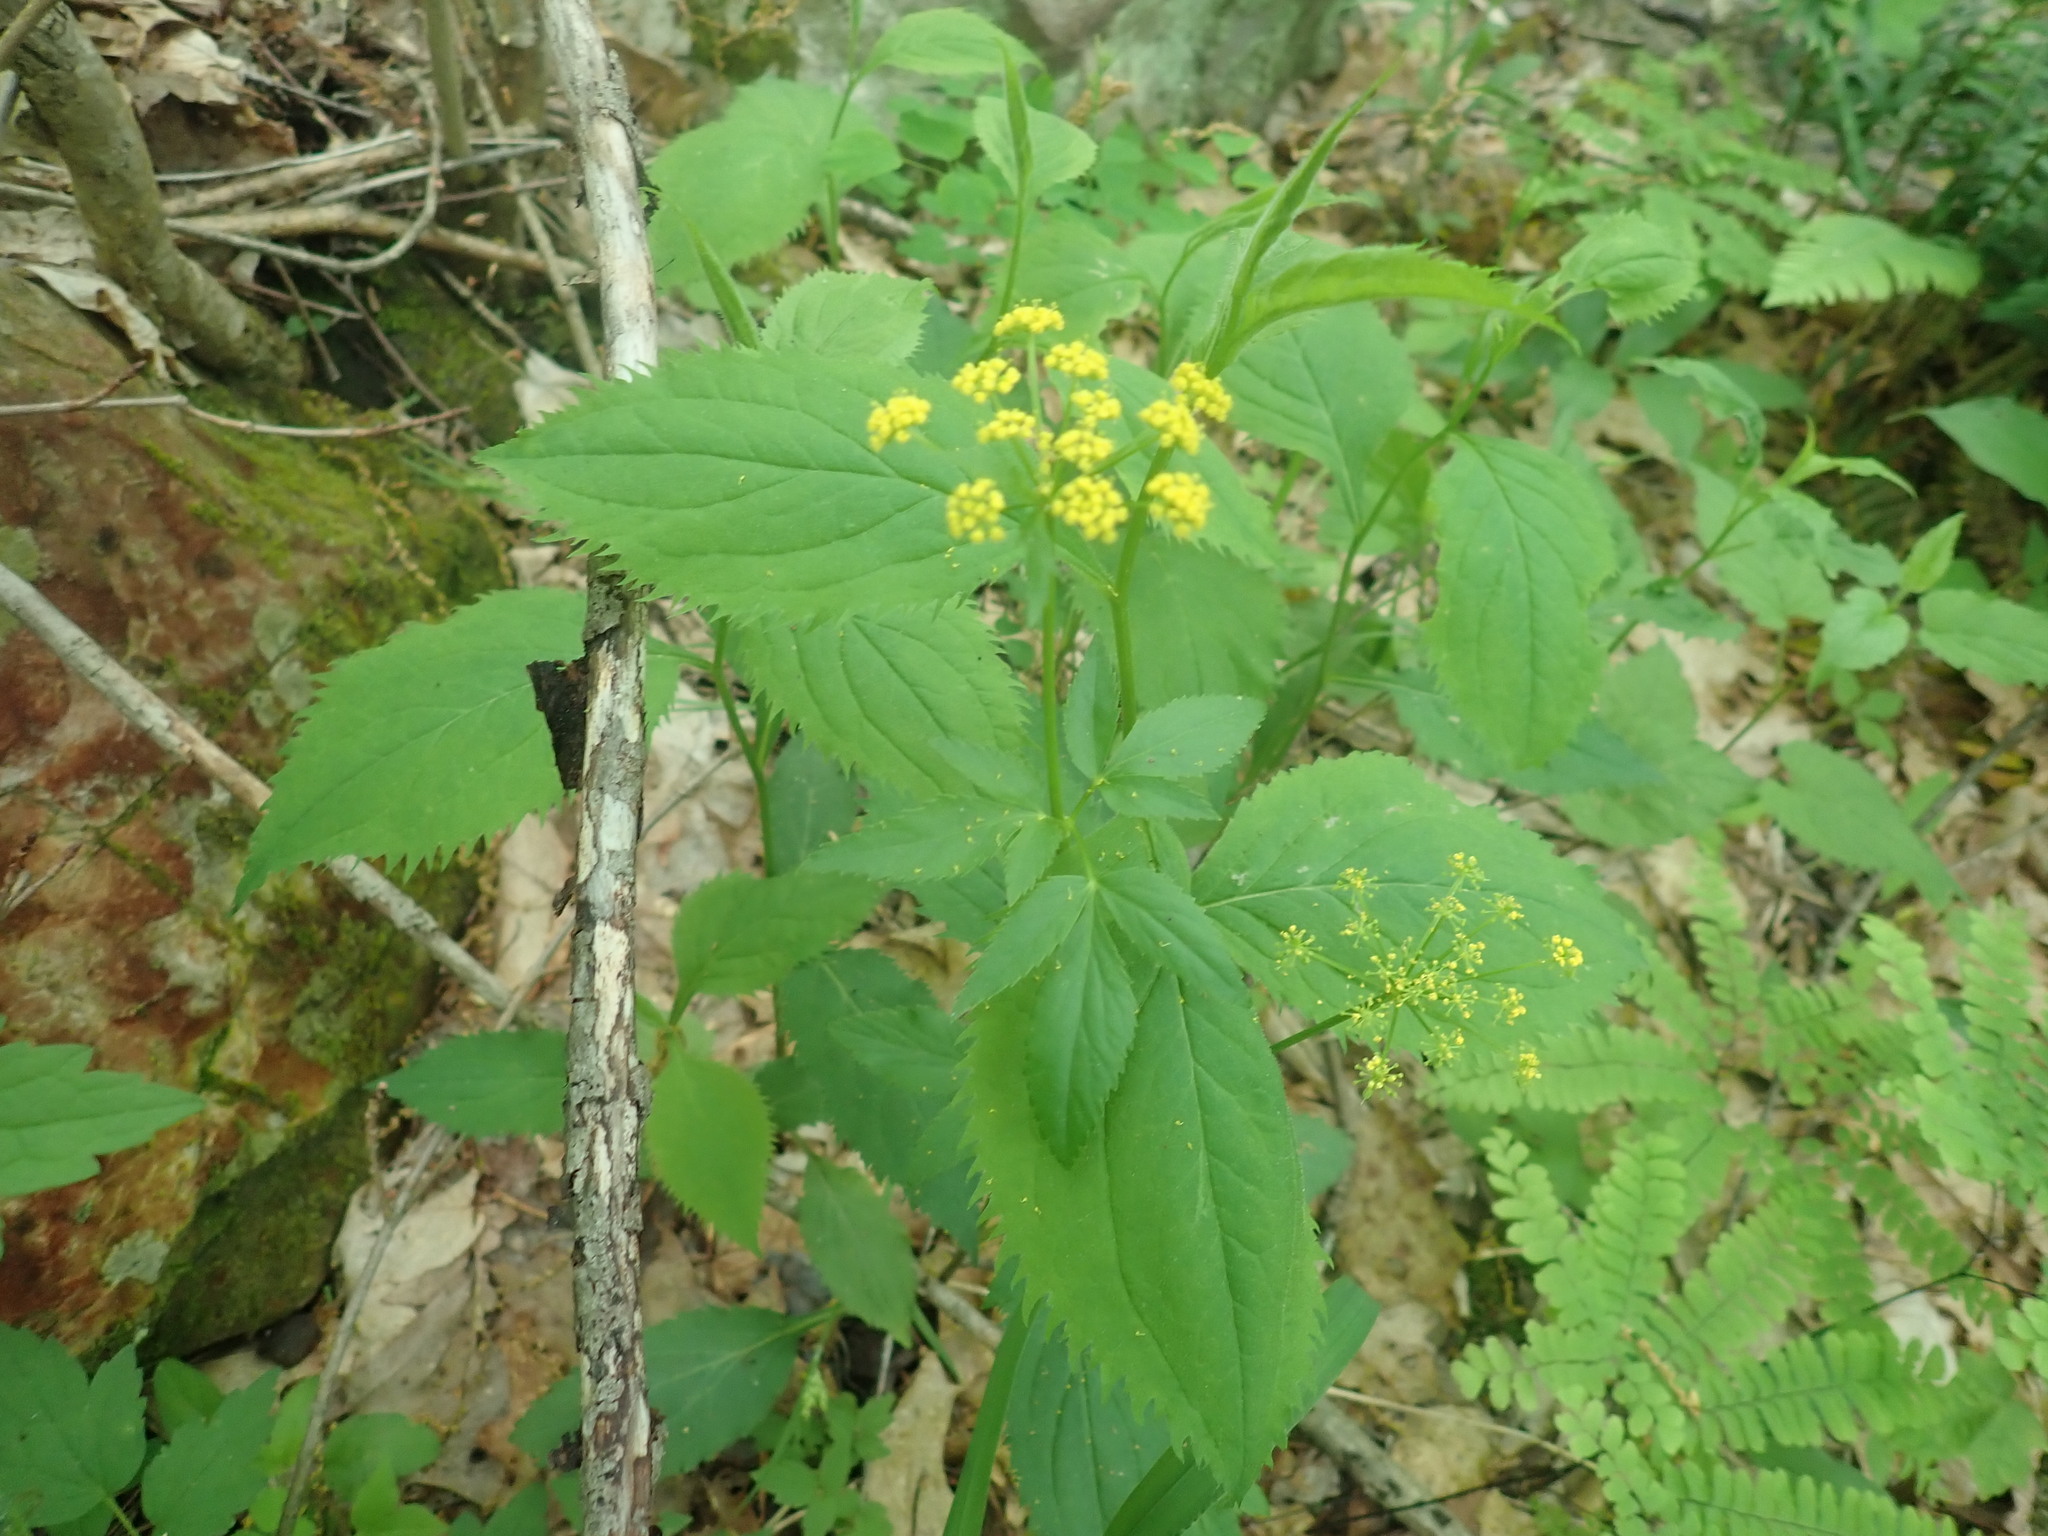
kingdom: Plantae
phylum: Tracheophyta
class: Magnoliopsida
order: Apiales
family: Apiaceae
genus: Zizia
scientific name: Zizia aurea
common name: Golden alexanders
